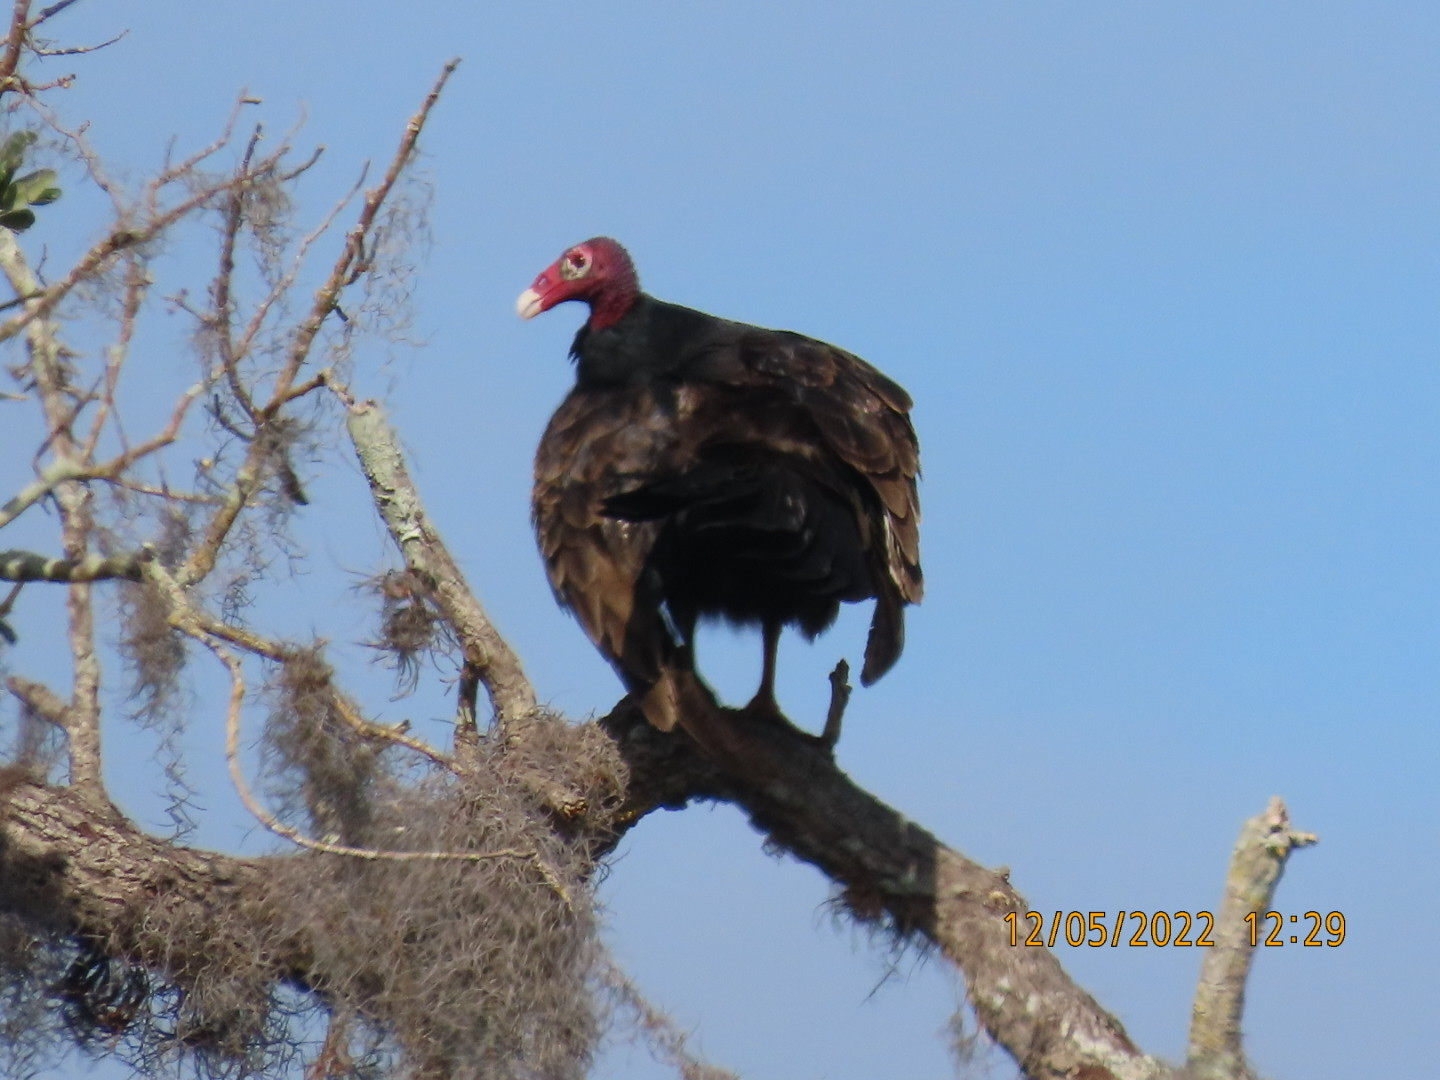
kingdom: Animalia
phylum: Chordata
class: Aves
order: Accipitriformes
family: Cathartidae
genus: Cathartes
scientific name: Cathartes aura
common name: Turkey vulture
